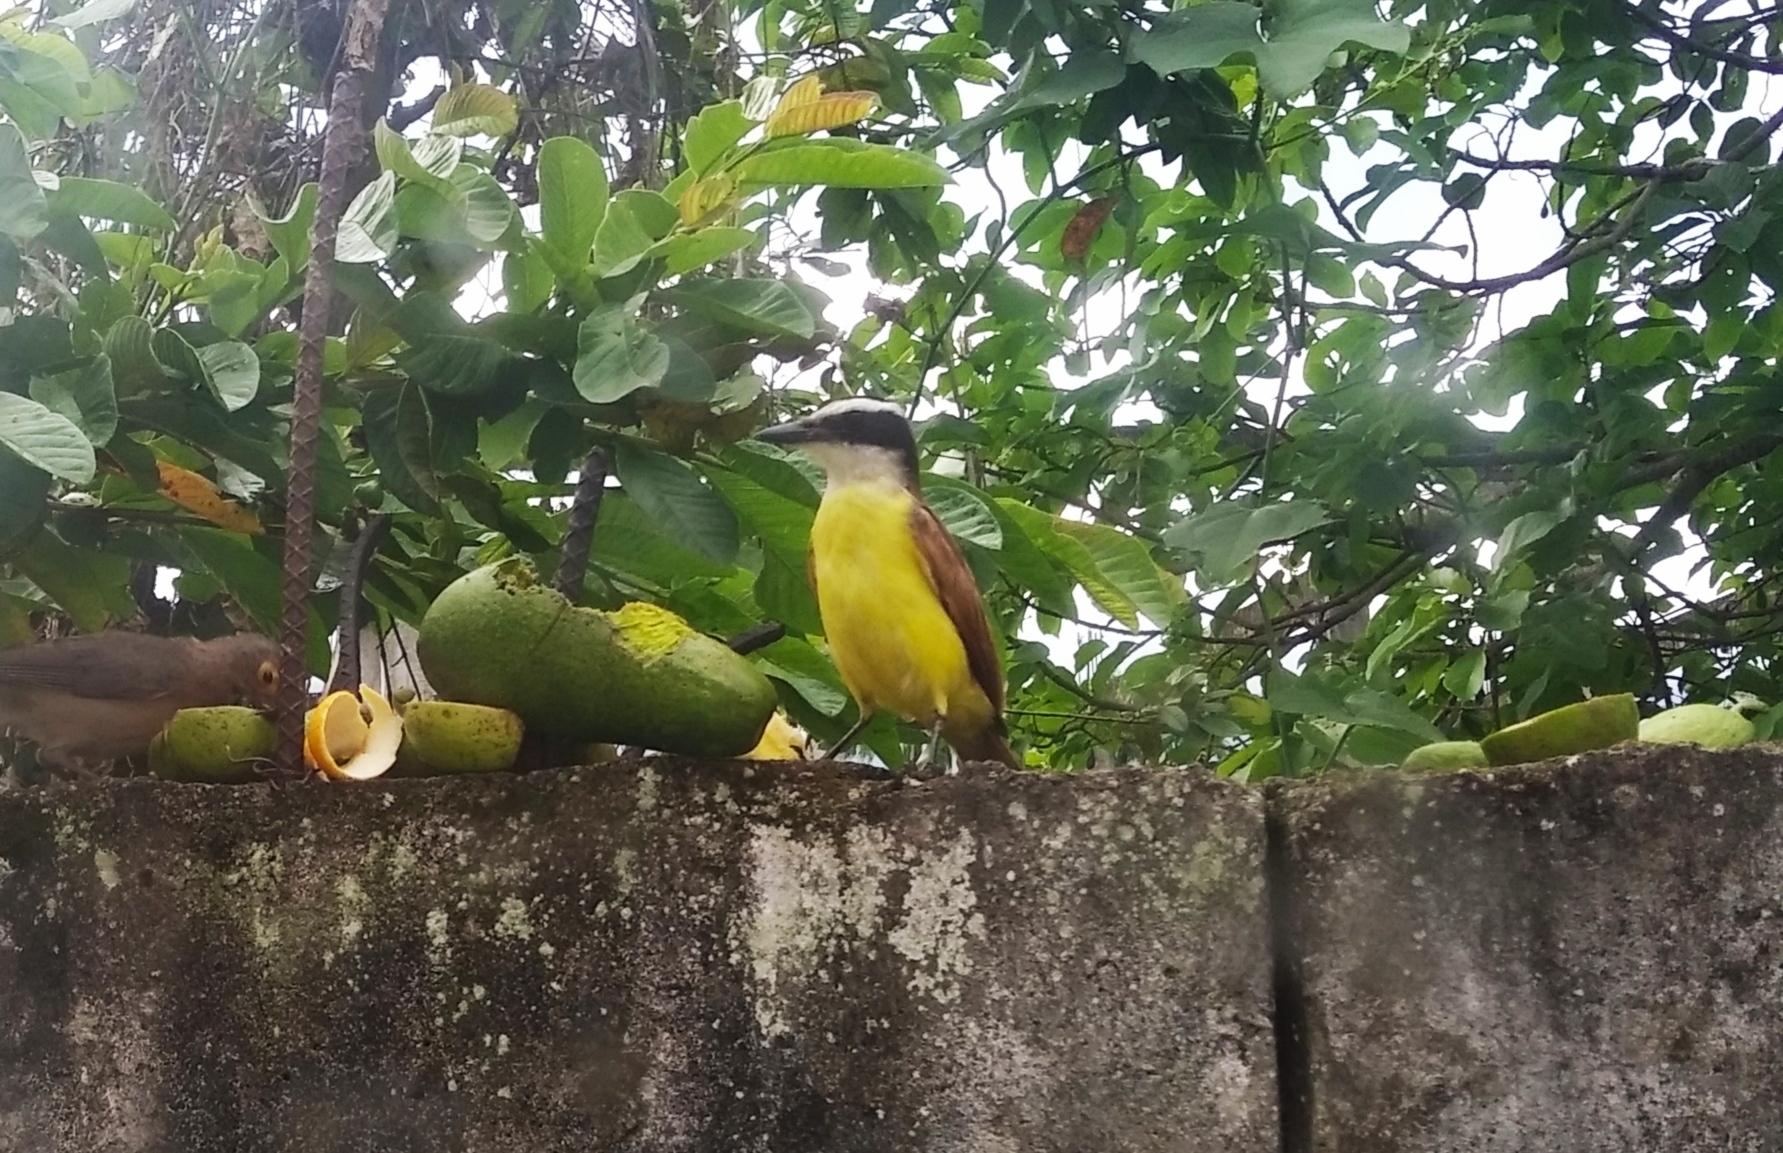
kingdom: Animalia
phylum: Chordata
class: Aves
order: Passeriformes
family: Tyrannidae
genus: Pitangus
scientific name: Pitangus sulphuratus
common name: Great kiskadee
